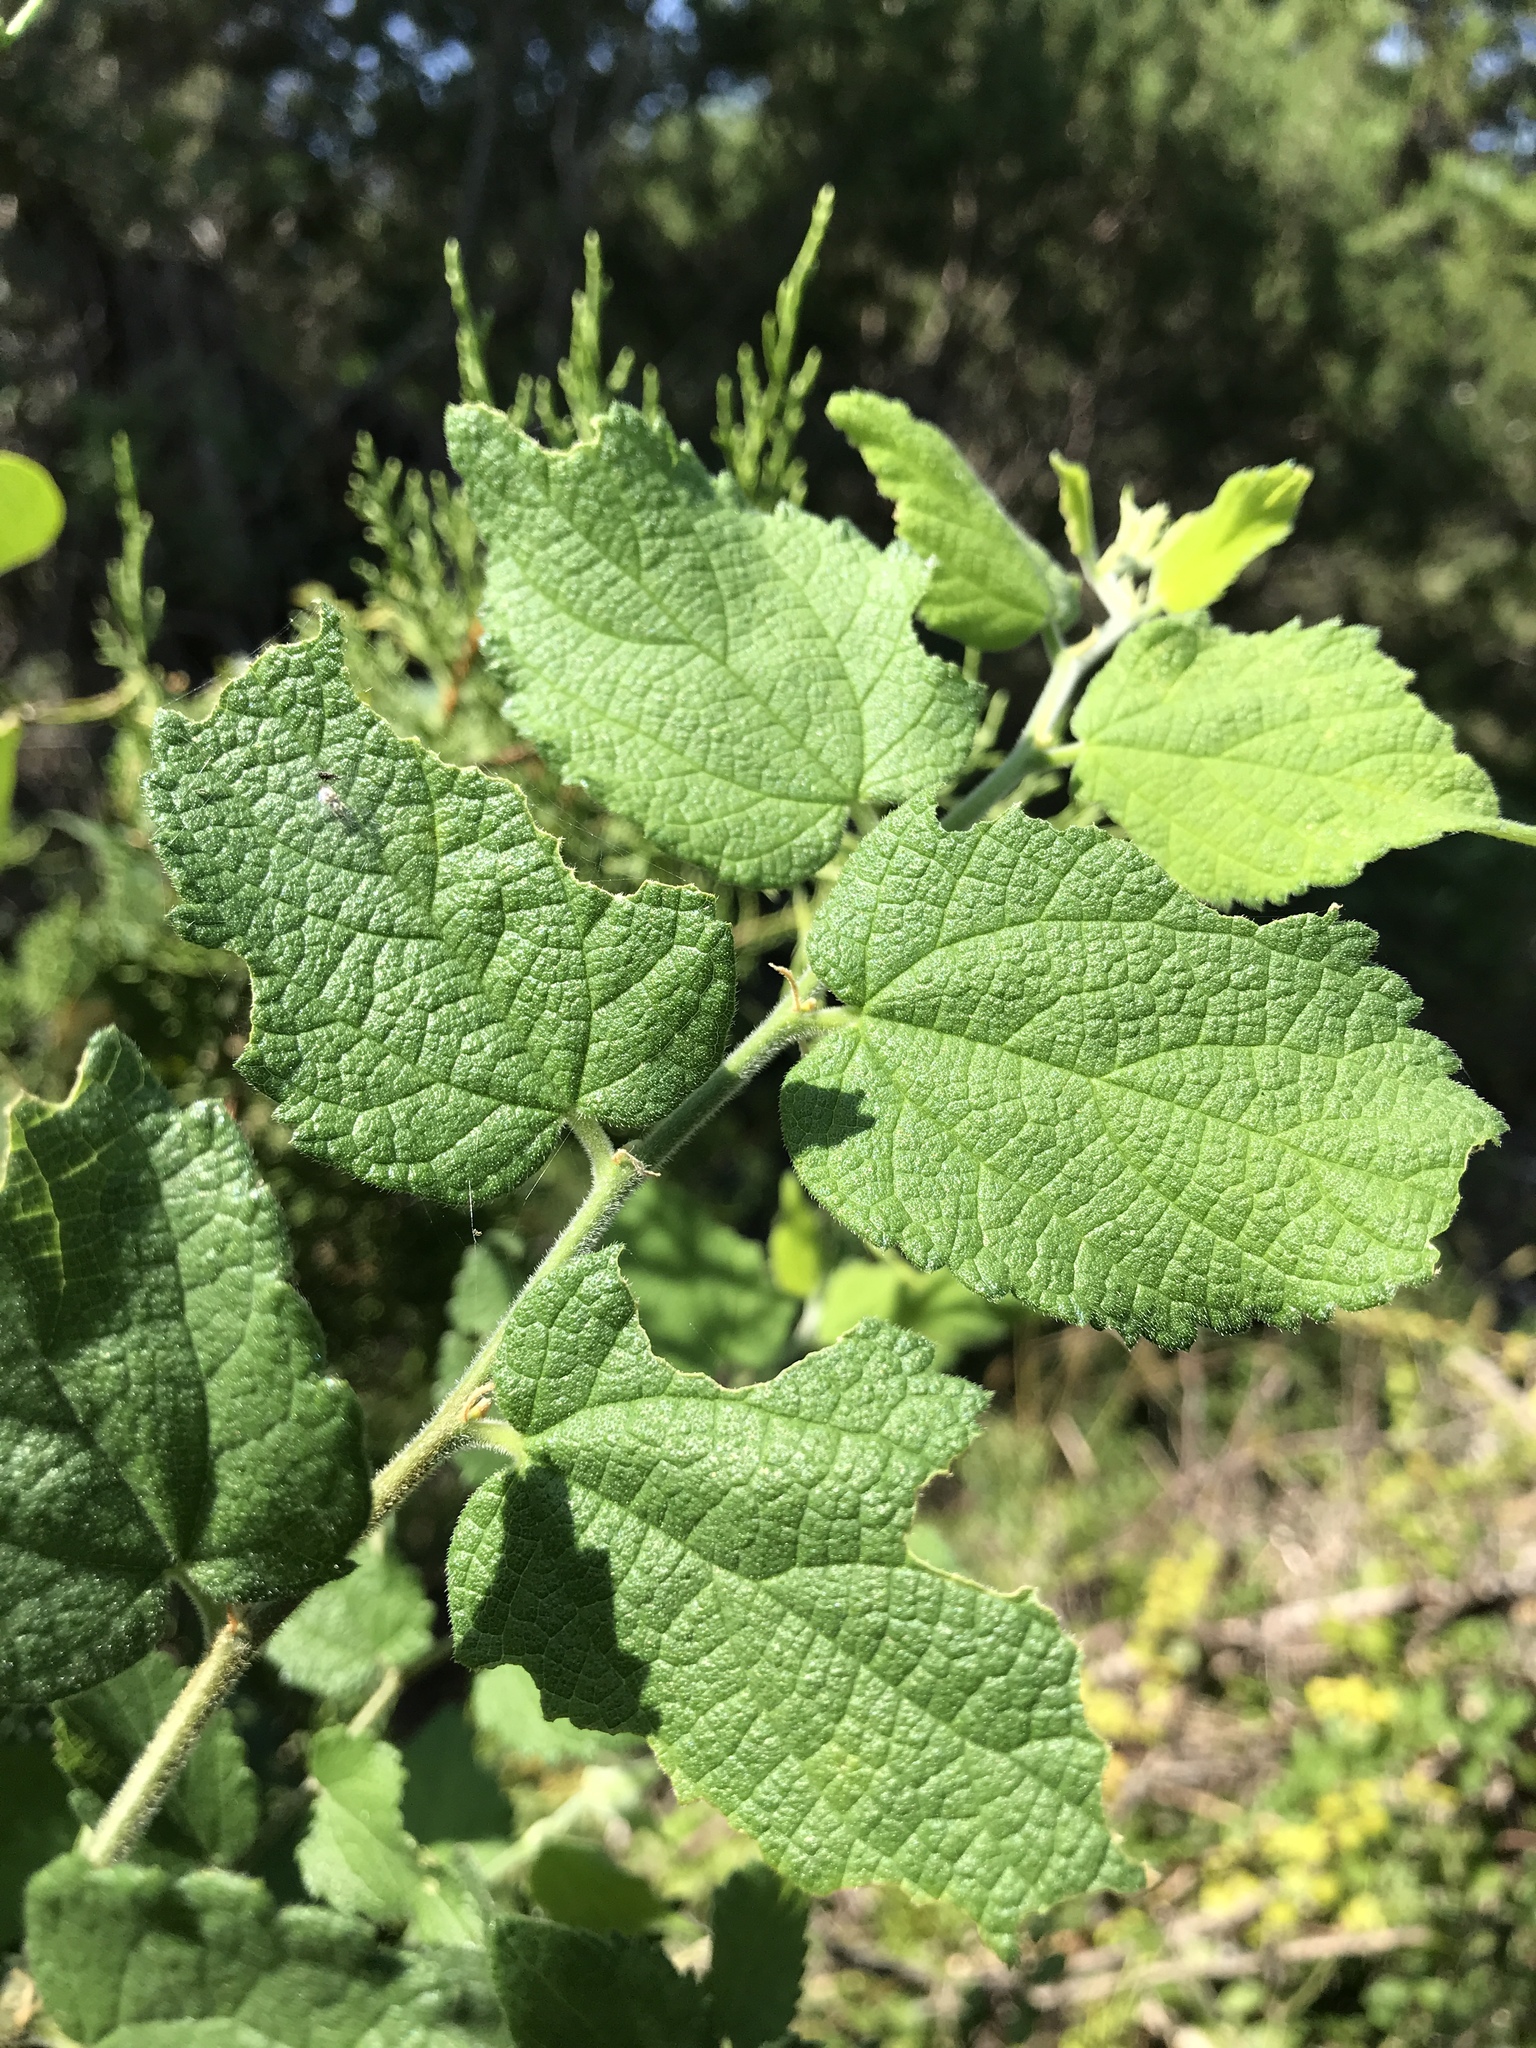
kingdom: Plantae
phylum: Tracheophyta
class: Magnoliopsida
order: Rosales
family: Cannabaceae
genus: Celtis
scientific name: Celtis reticulata
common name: Netleaf hackberry
